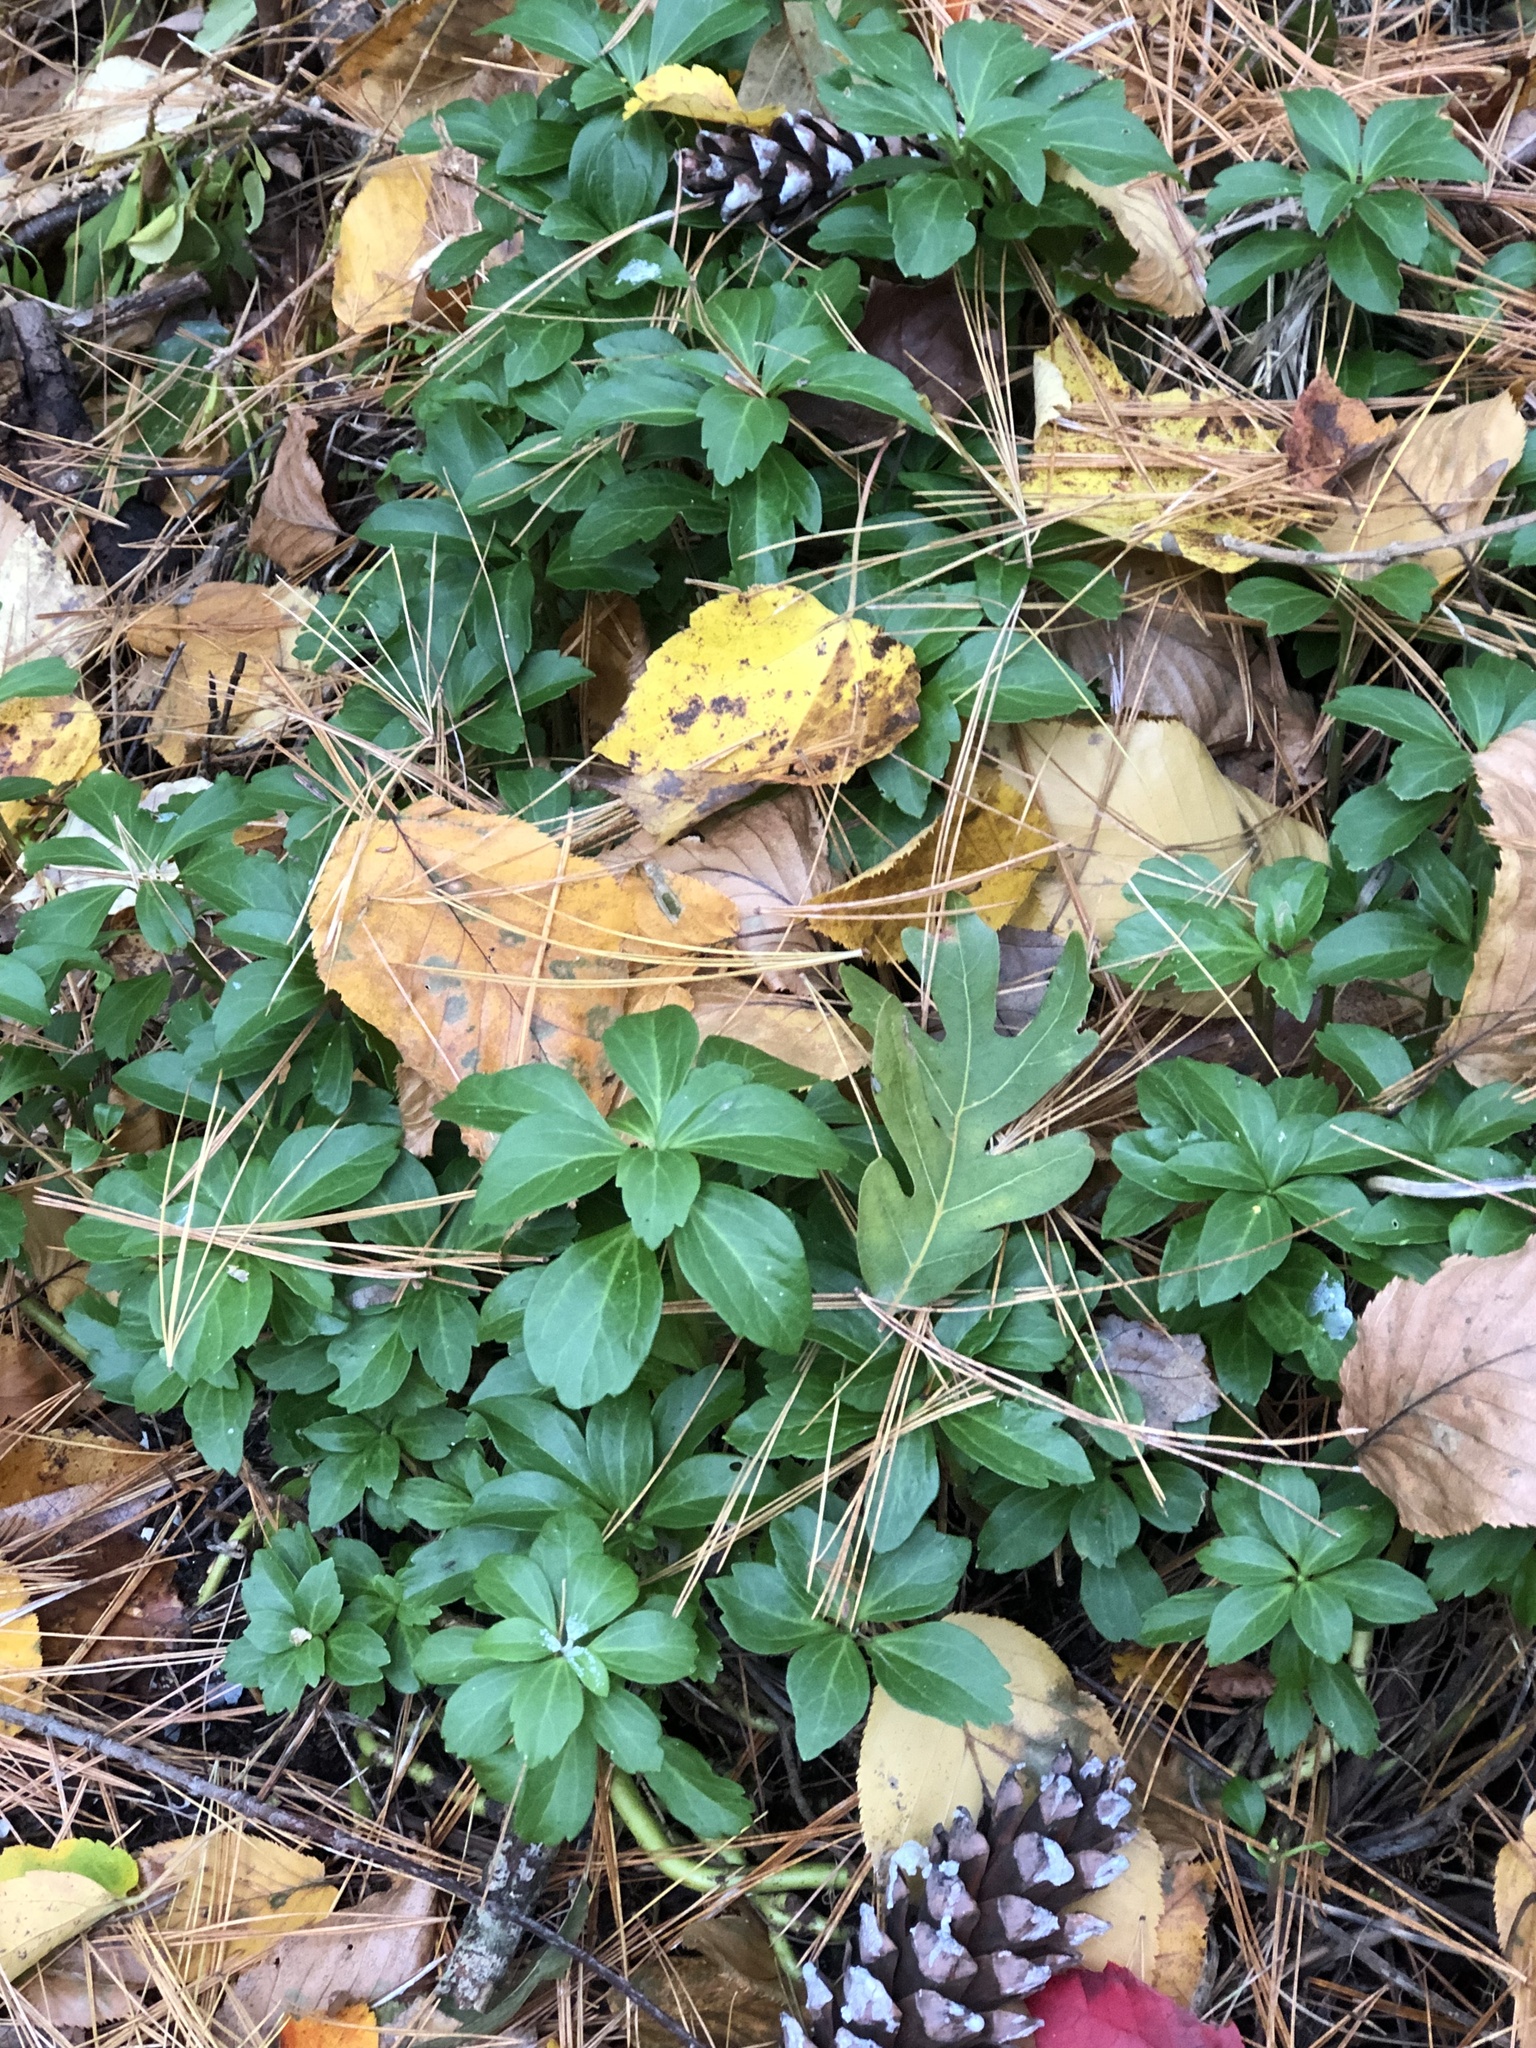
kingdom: Plantae
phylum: Tracheophyta
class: Magnoliopsida
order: Buxales
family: Buxaceae
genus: Pachysandra
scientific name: Pachysandra terminalis
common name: Japanese pachysandra
